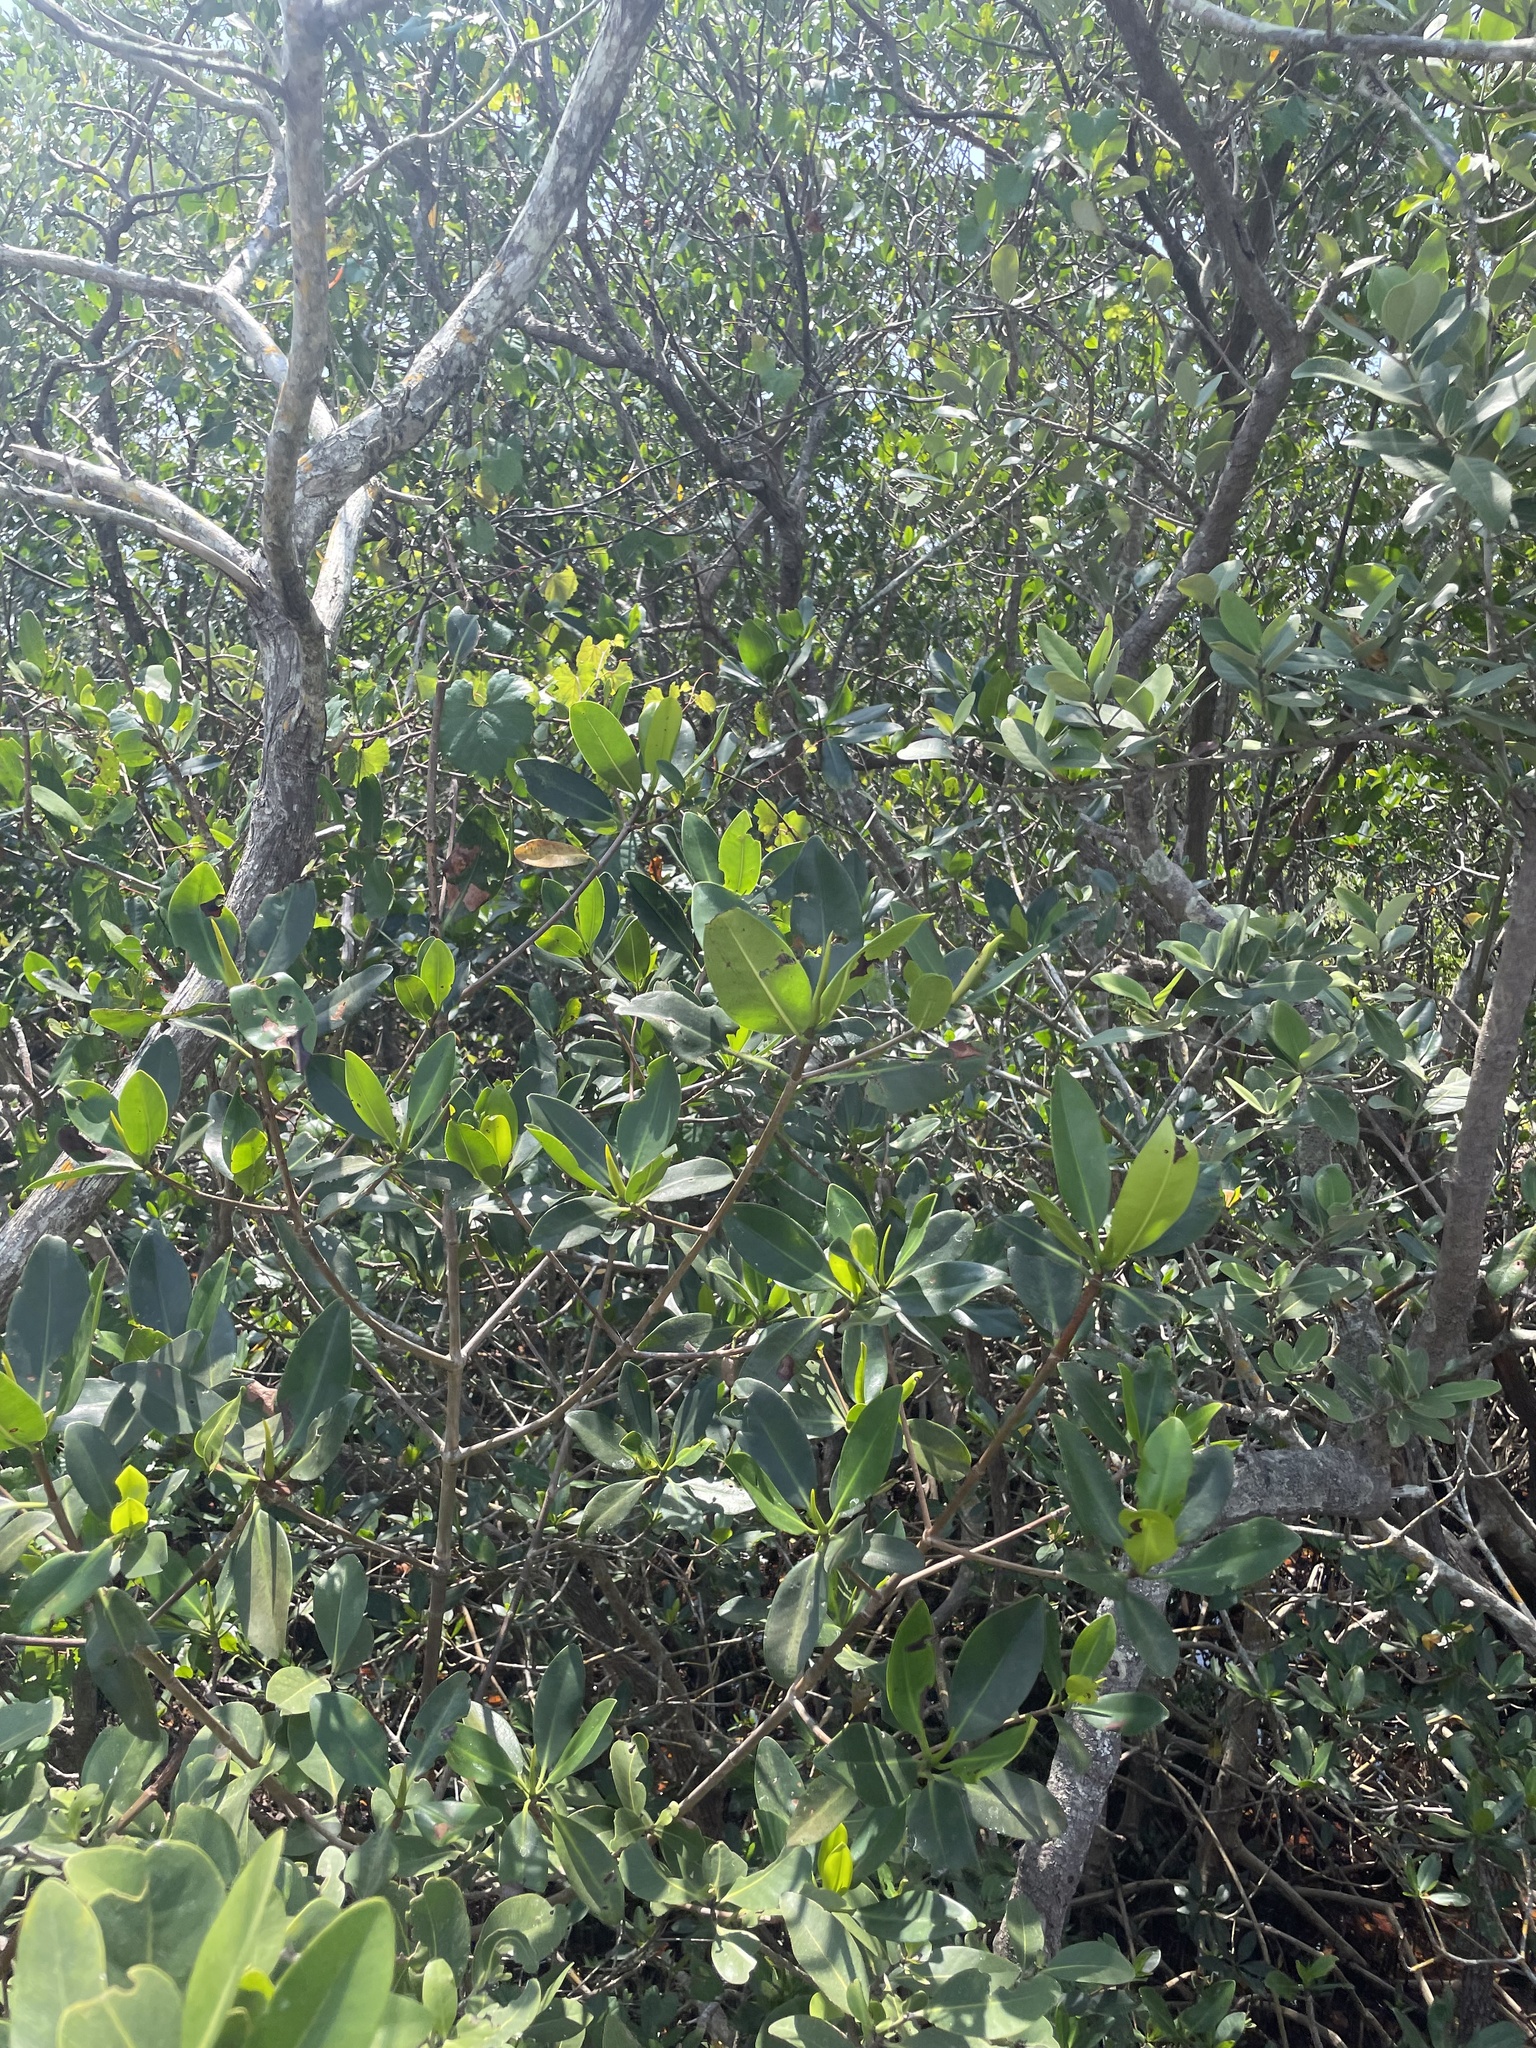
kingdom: Plantae
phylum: Tracheophyta
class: Magnoliopsida
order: Malpighiales
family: Rhizophoraceae
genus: Rhizophora
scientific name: Rhizophora mangle
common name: Red mangrove
